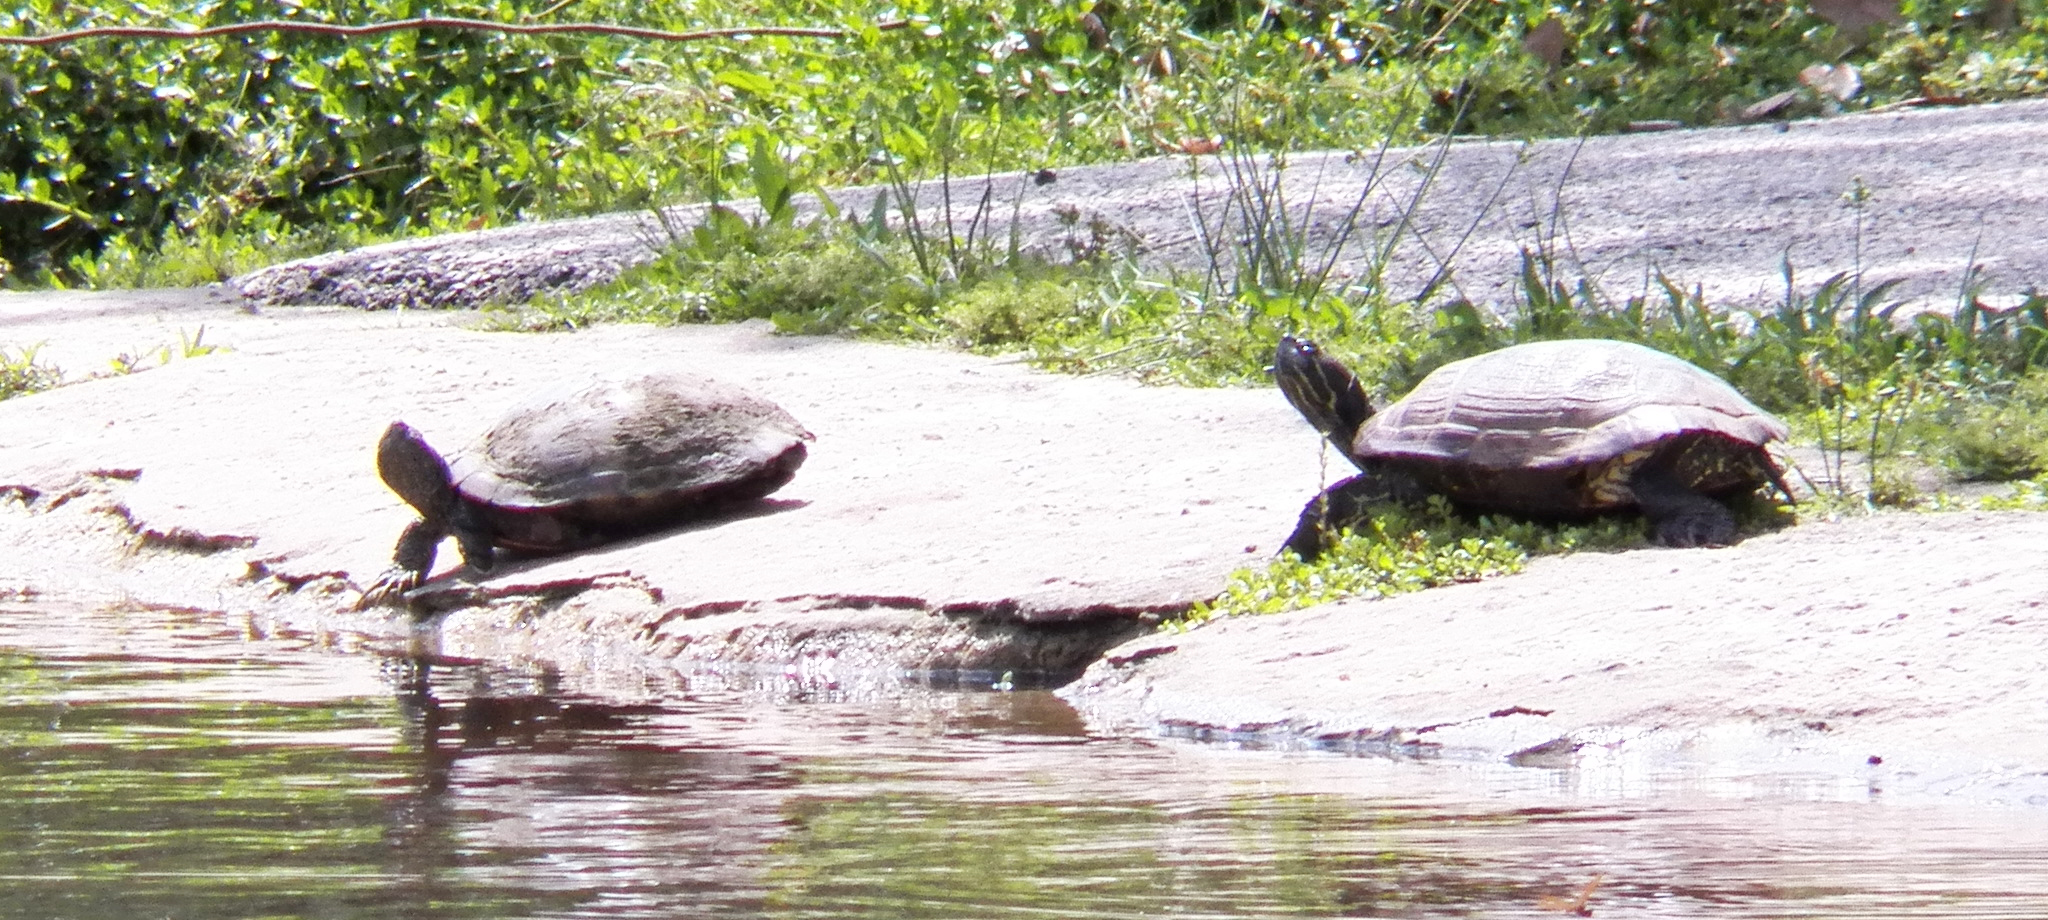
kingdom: Animalia
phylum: Chordata
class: Testudines
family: Emydidae
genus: Trachemys
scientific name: Trachemys scripta
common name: Slider
